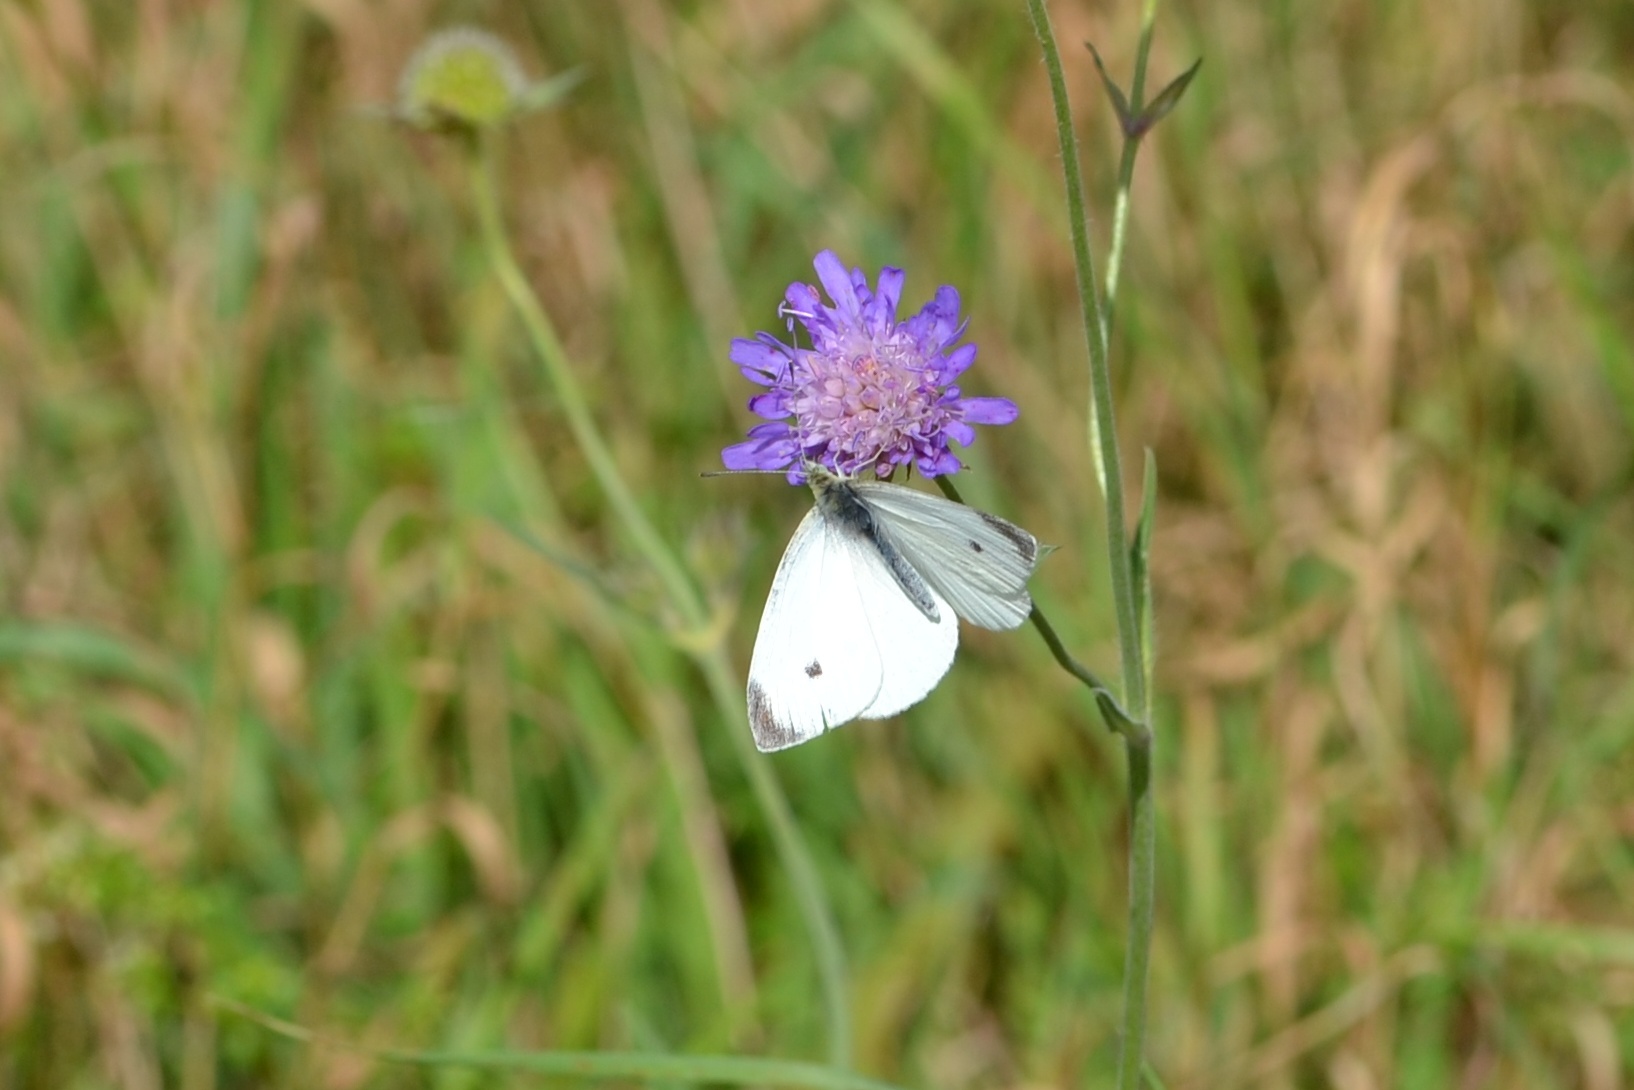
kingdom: Animalia
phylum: Arthropoda
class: Insecta
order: Lepidoptera
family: Pieridae
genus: Pieris
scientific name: Pieris rapae
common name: Small white
